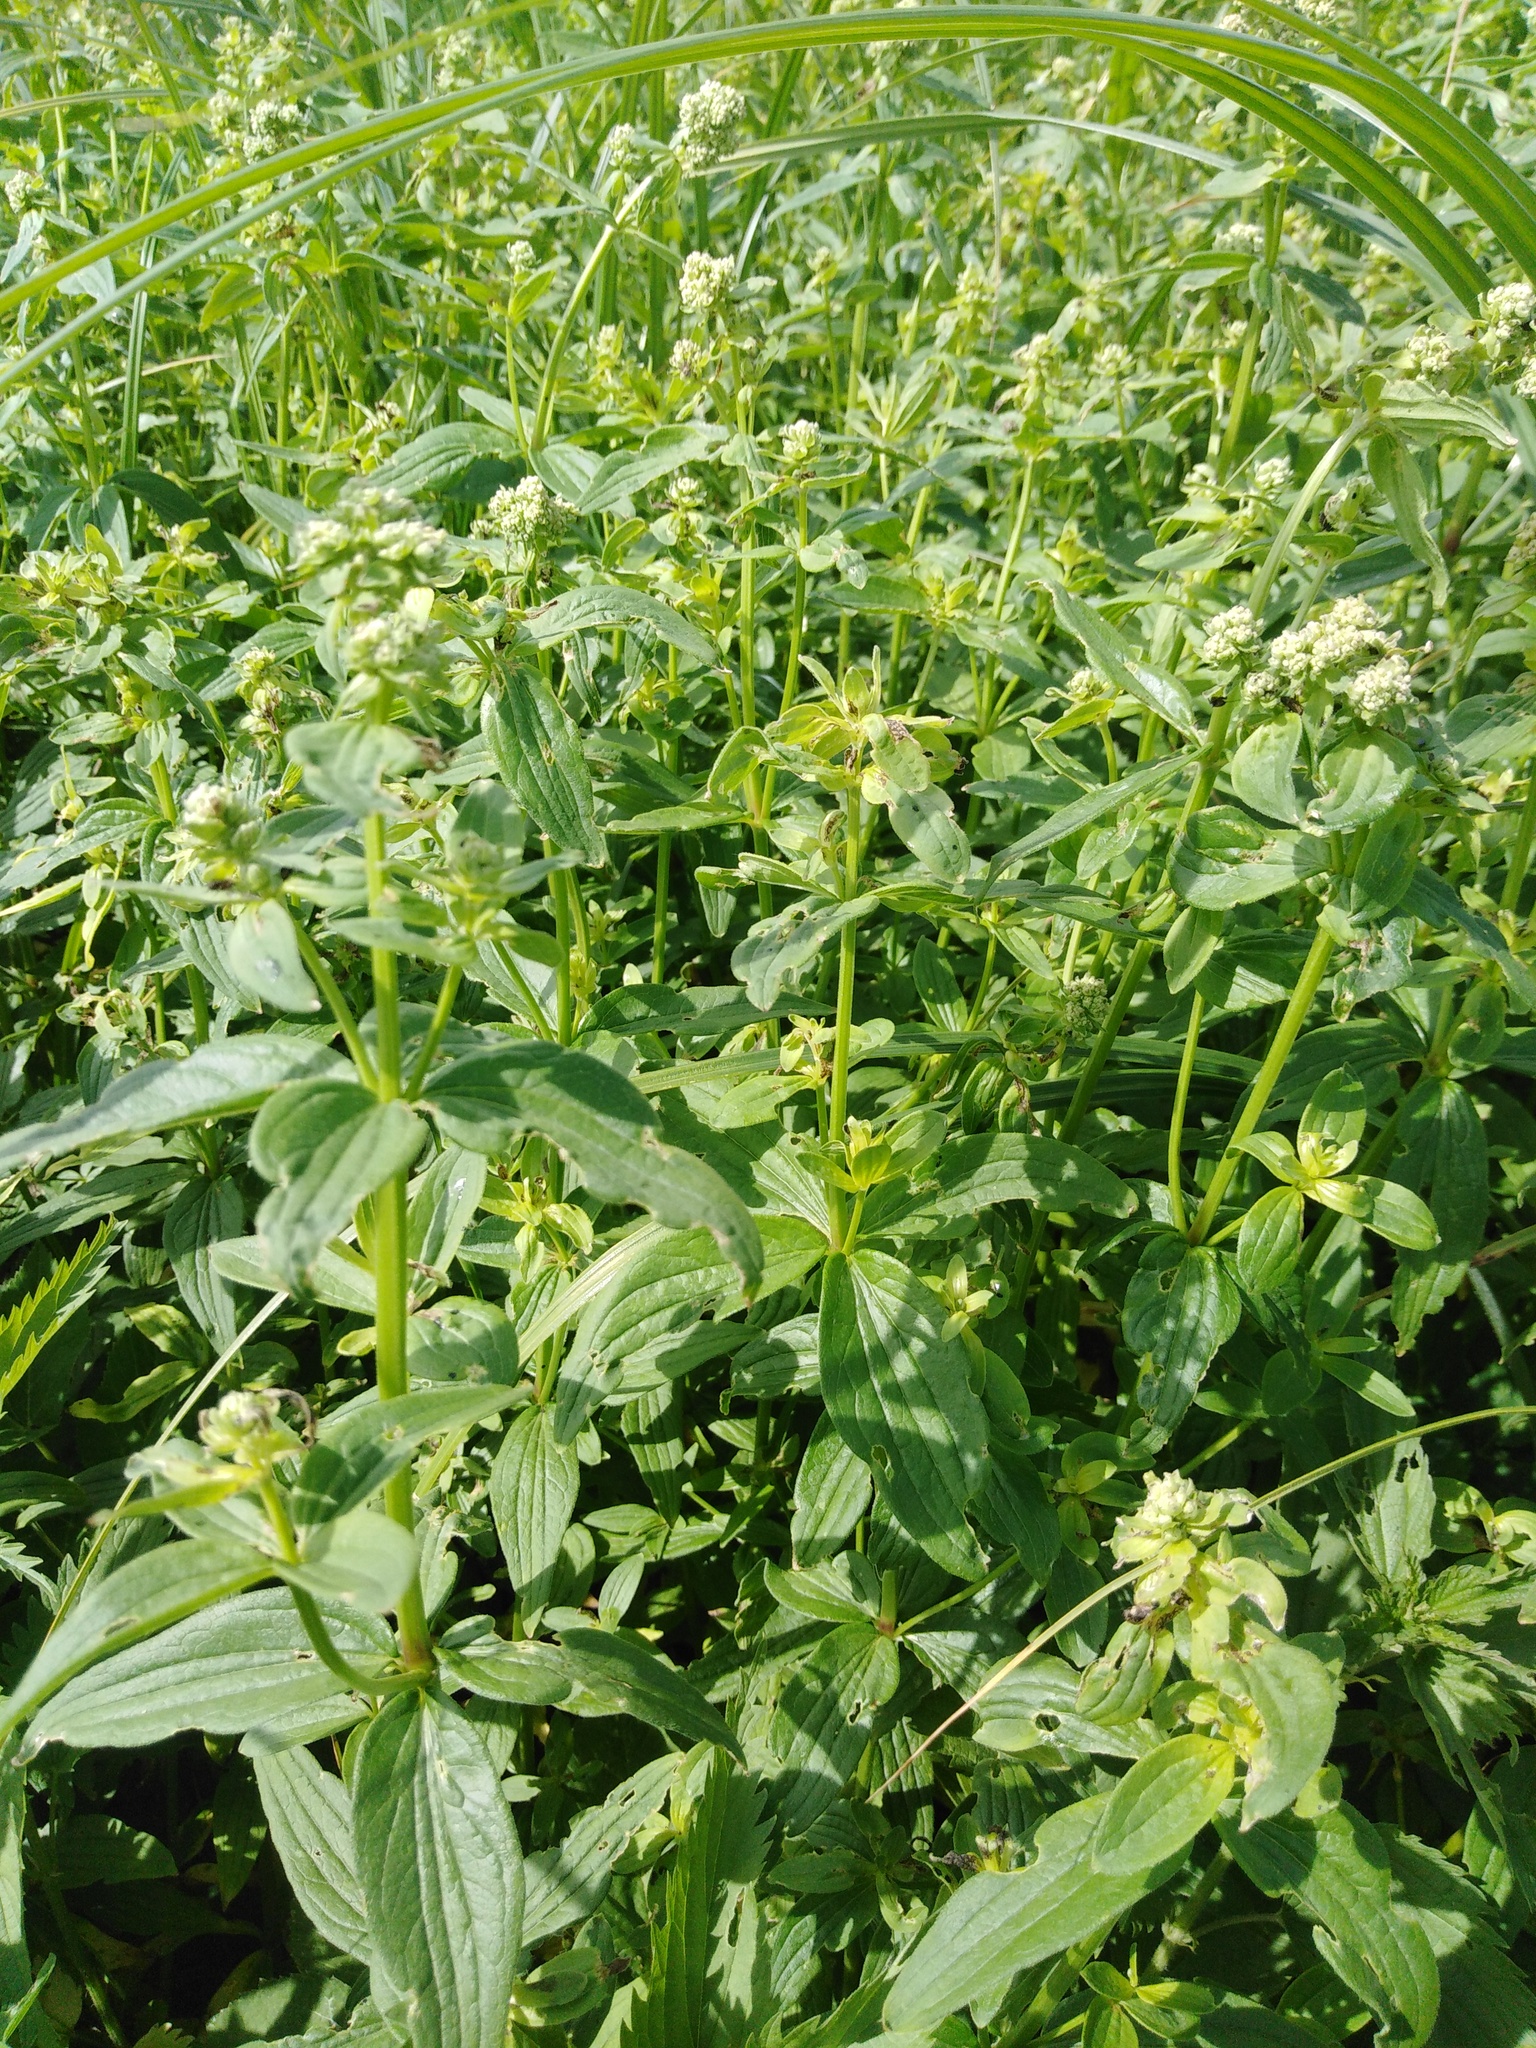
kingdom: Plantae
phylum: Tracheophyta
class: Magnoliopsida
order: Gentianales
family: Rubiaceae
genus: Galium
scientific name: Galium rubioides
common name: European bedstraw
